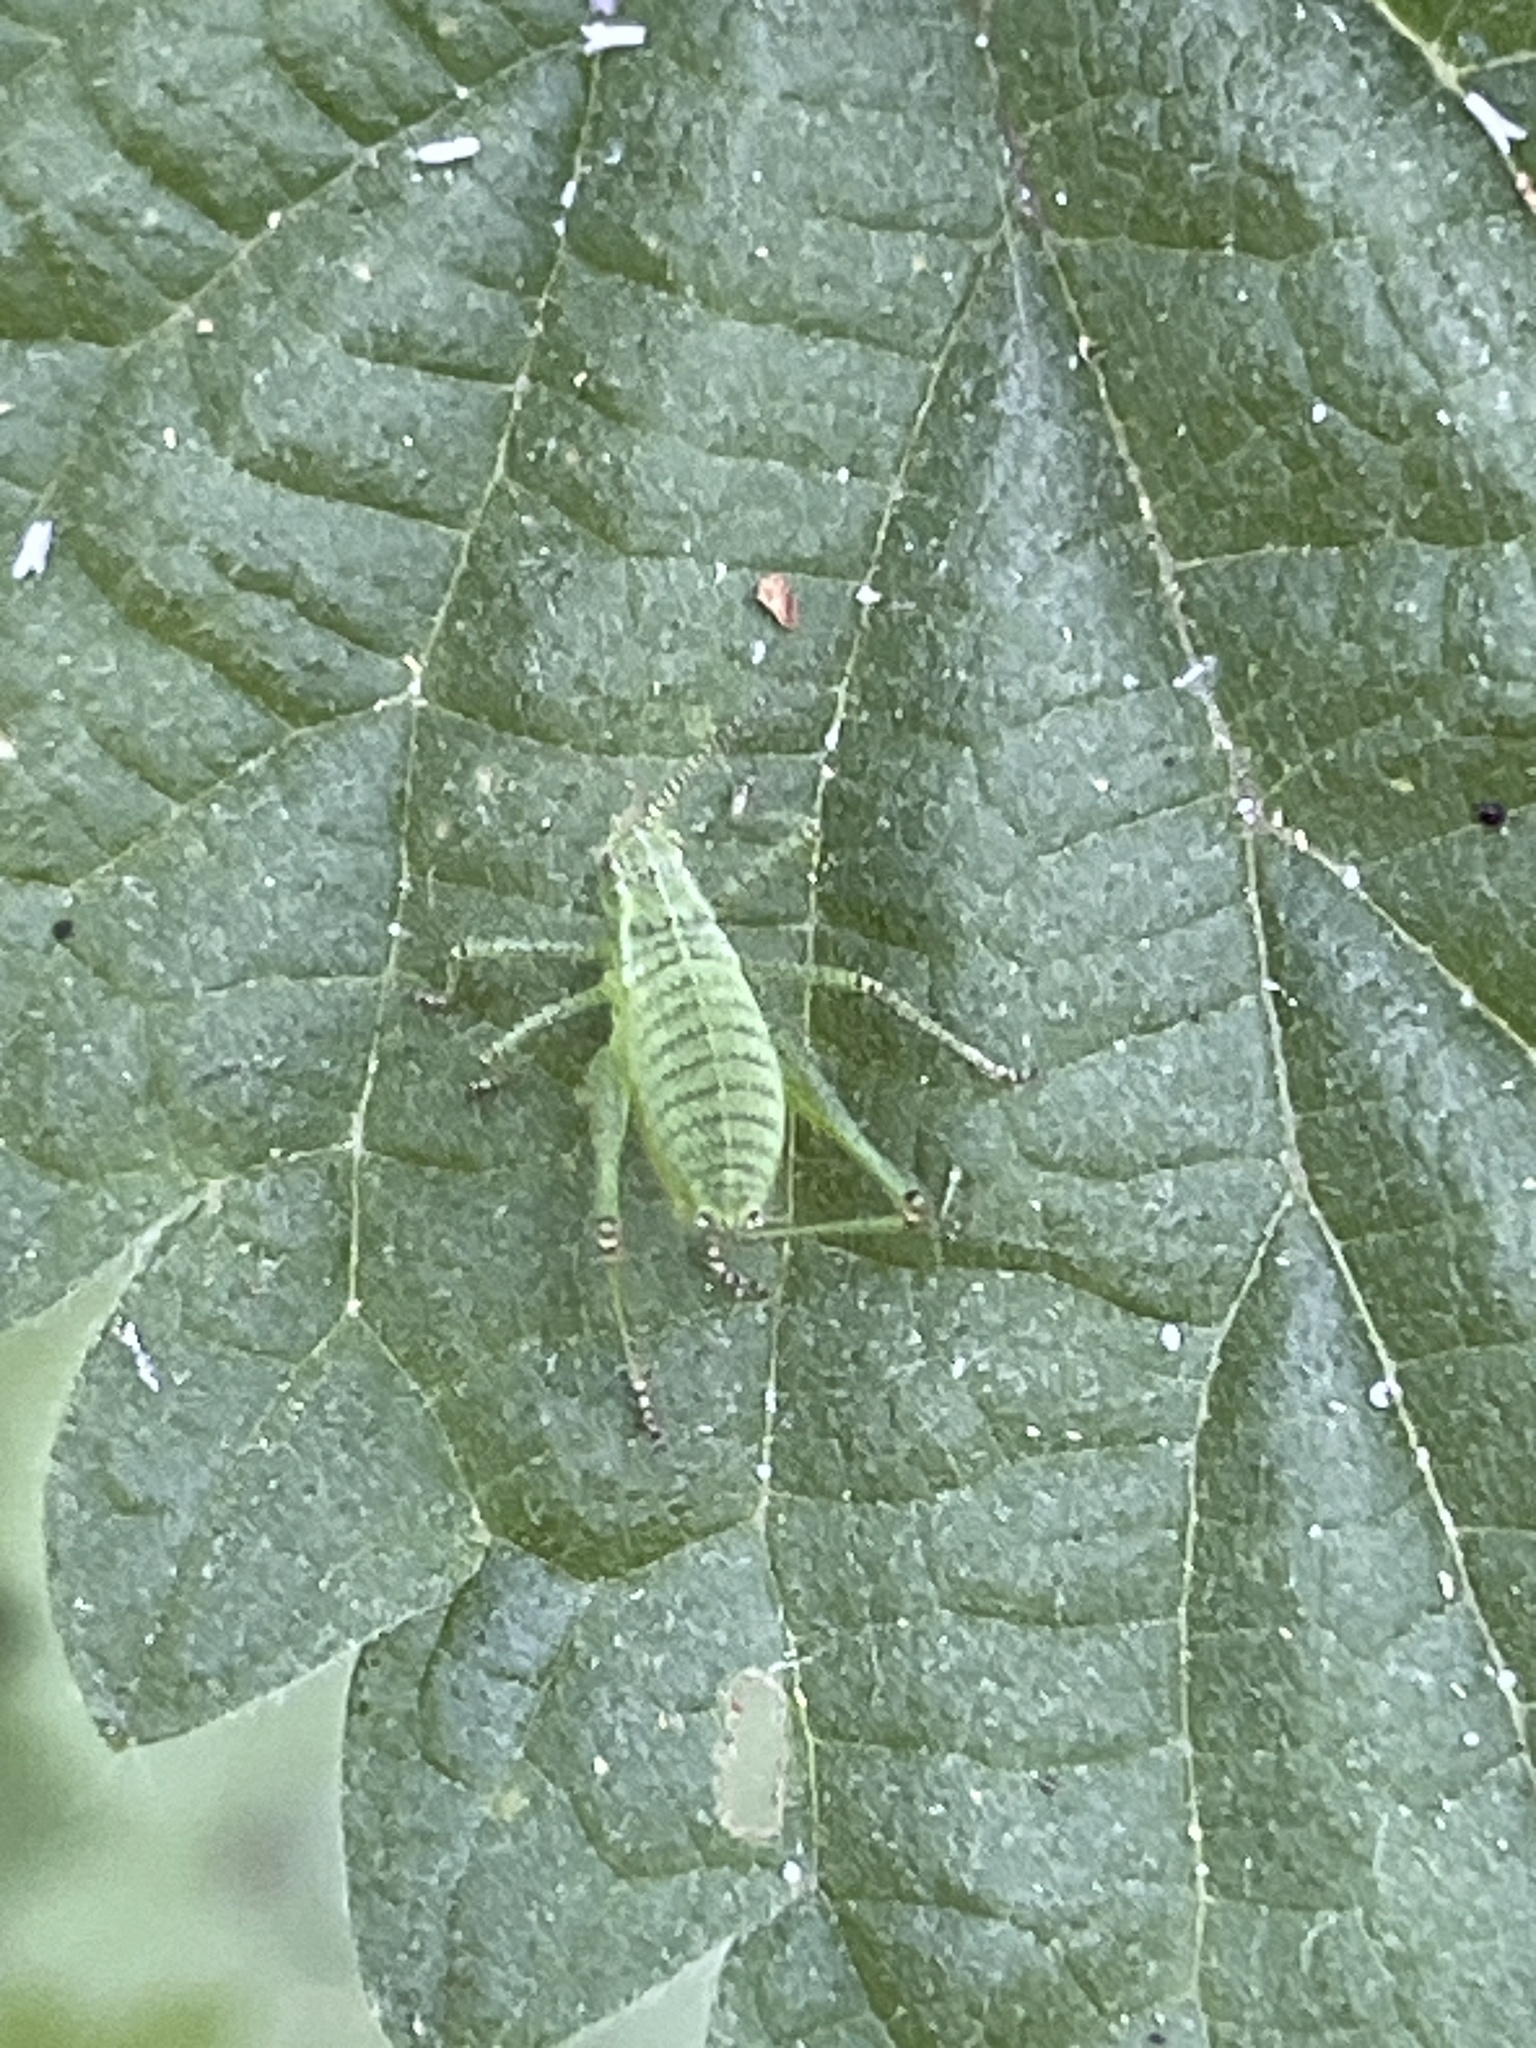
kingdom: Animalia
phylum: Arthropoda
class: Insecta
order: Orthoptera
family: Tettigoniidae
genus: Leptophyes
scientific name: Leptophyes punctatissima
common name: Speckled bush-cricket
